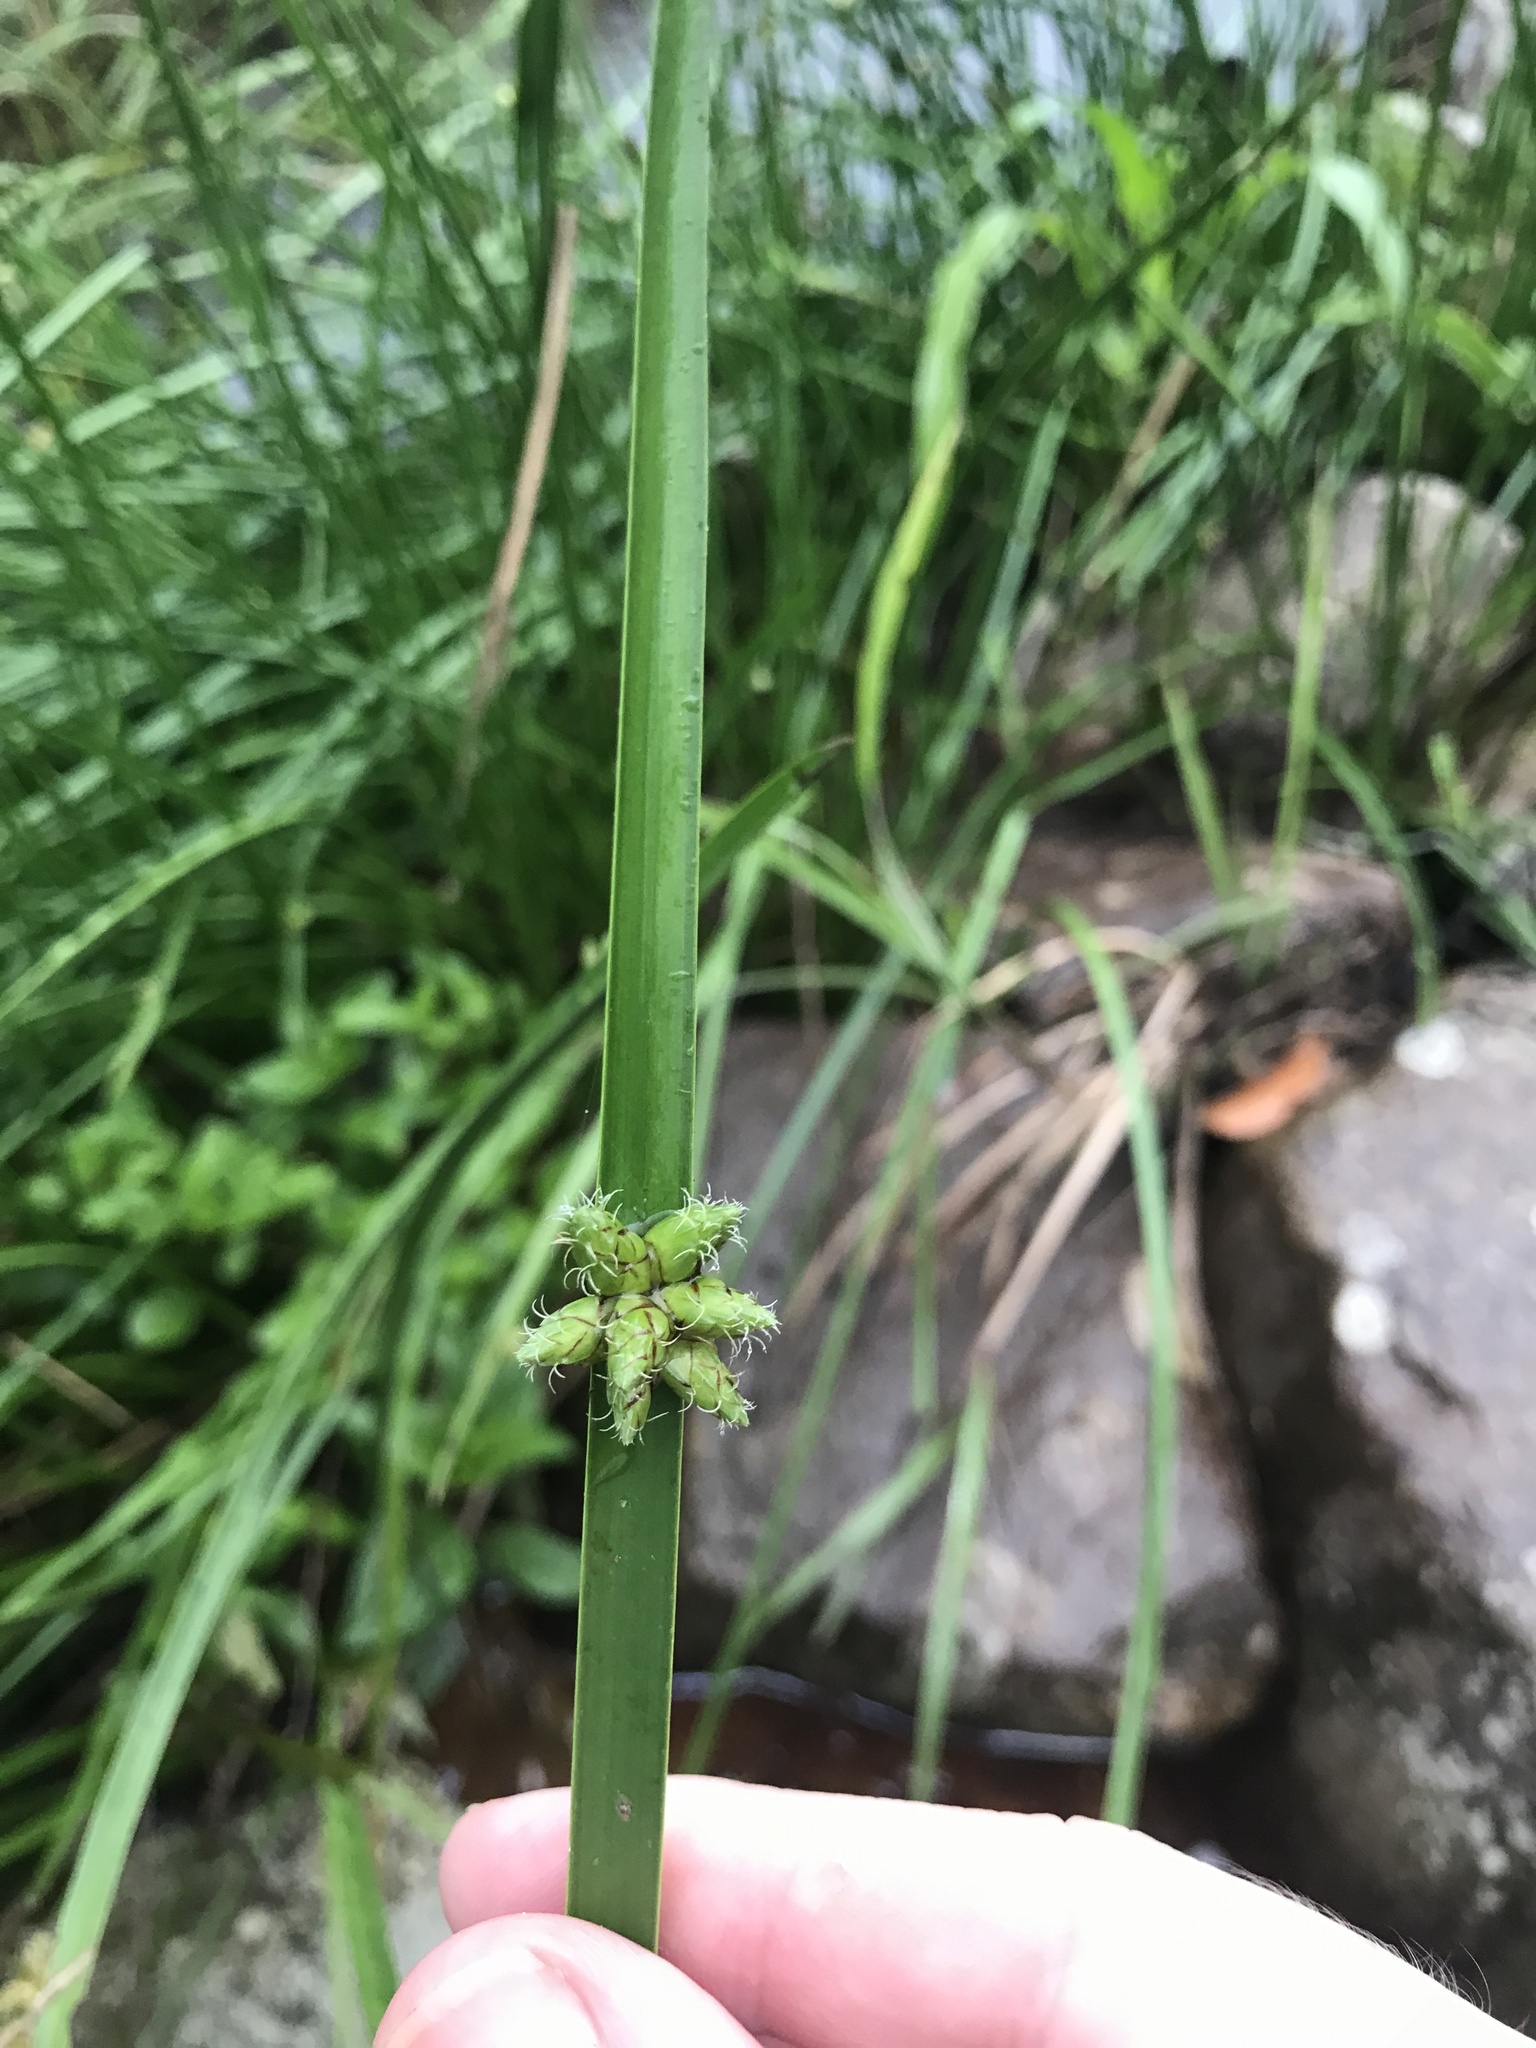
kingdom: Plantae
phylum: Tracheophyta
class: Liliopsida
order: Poales
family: Cyperaceae
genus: Schoenoplectiella
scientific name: Schoenoplectiella triangulata
